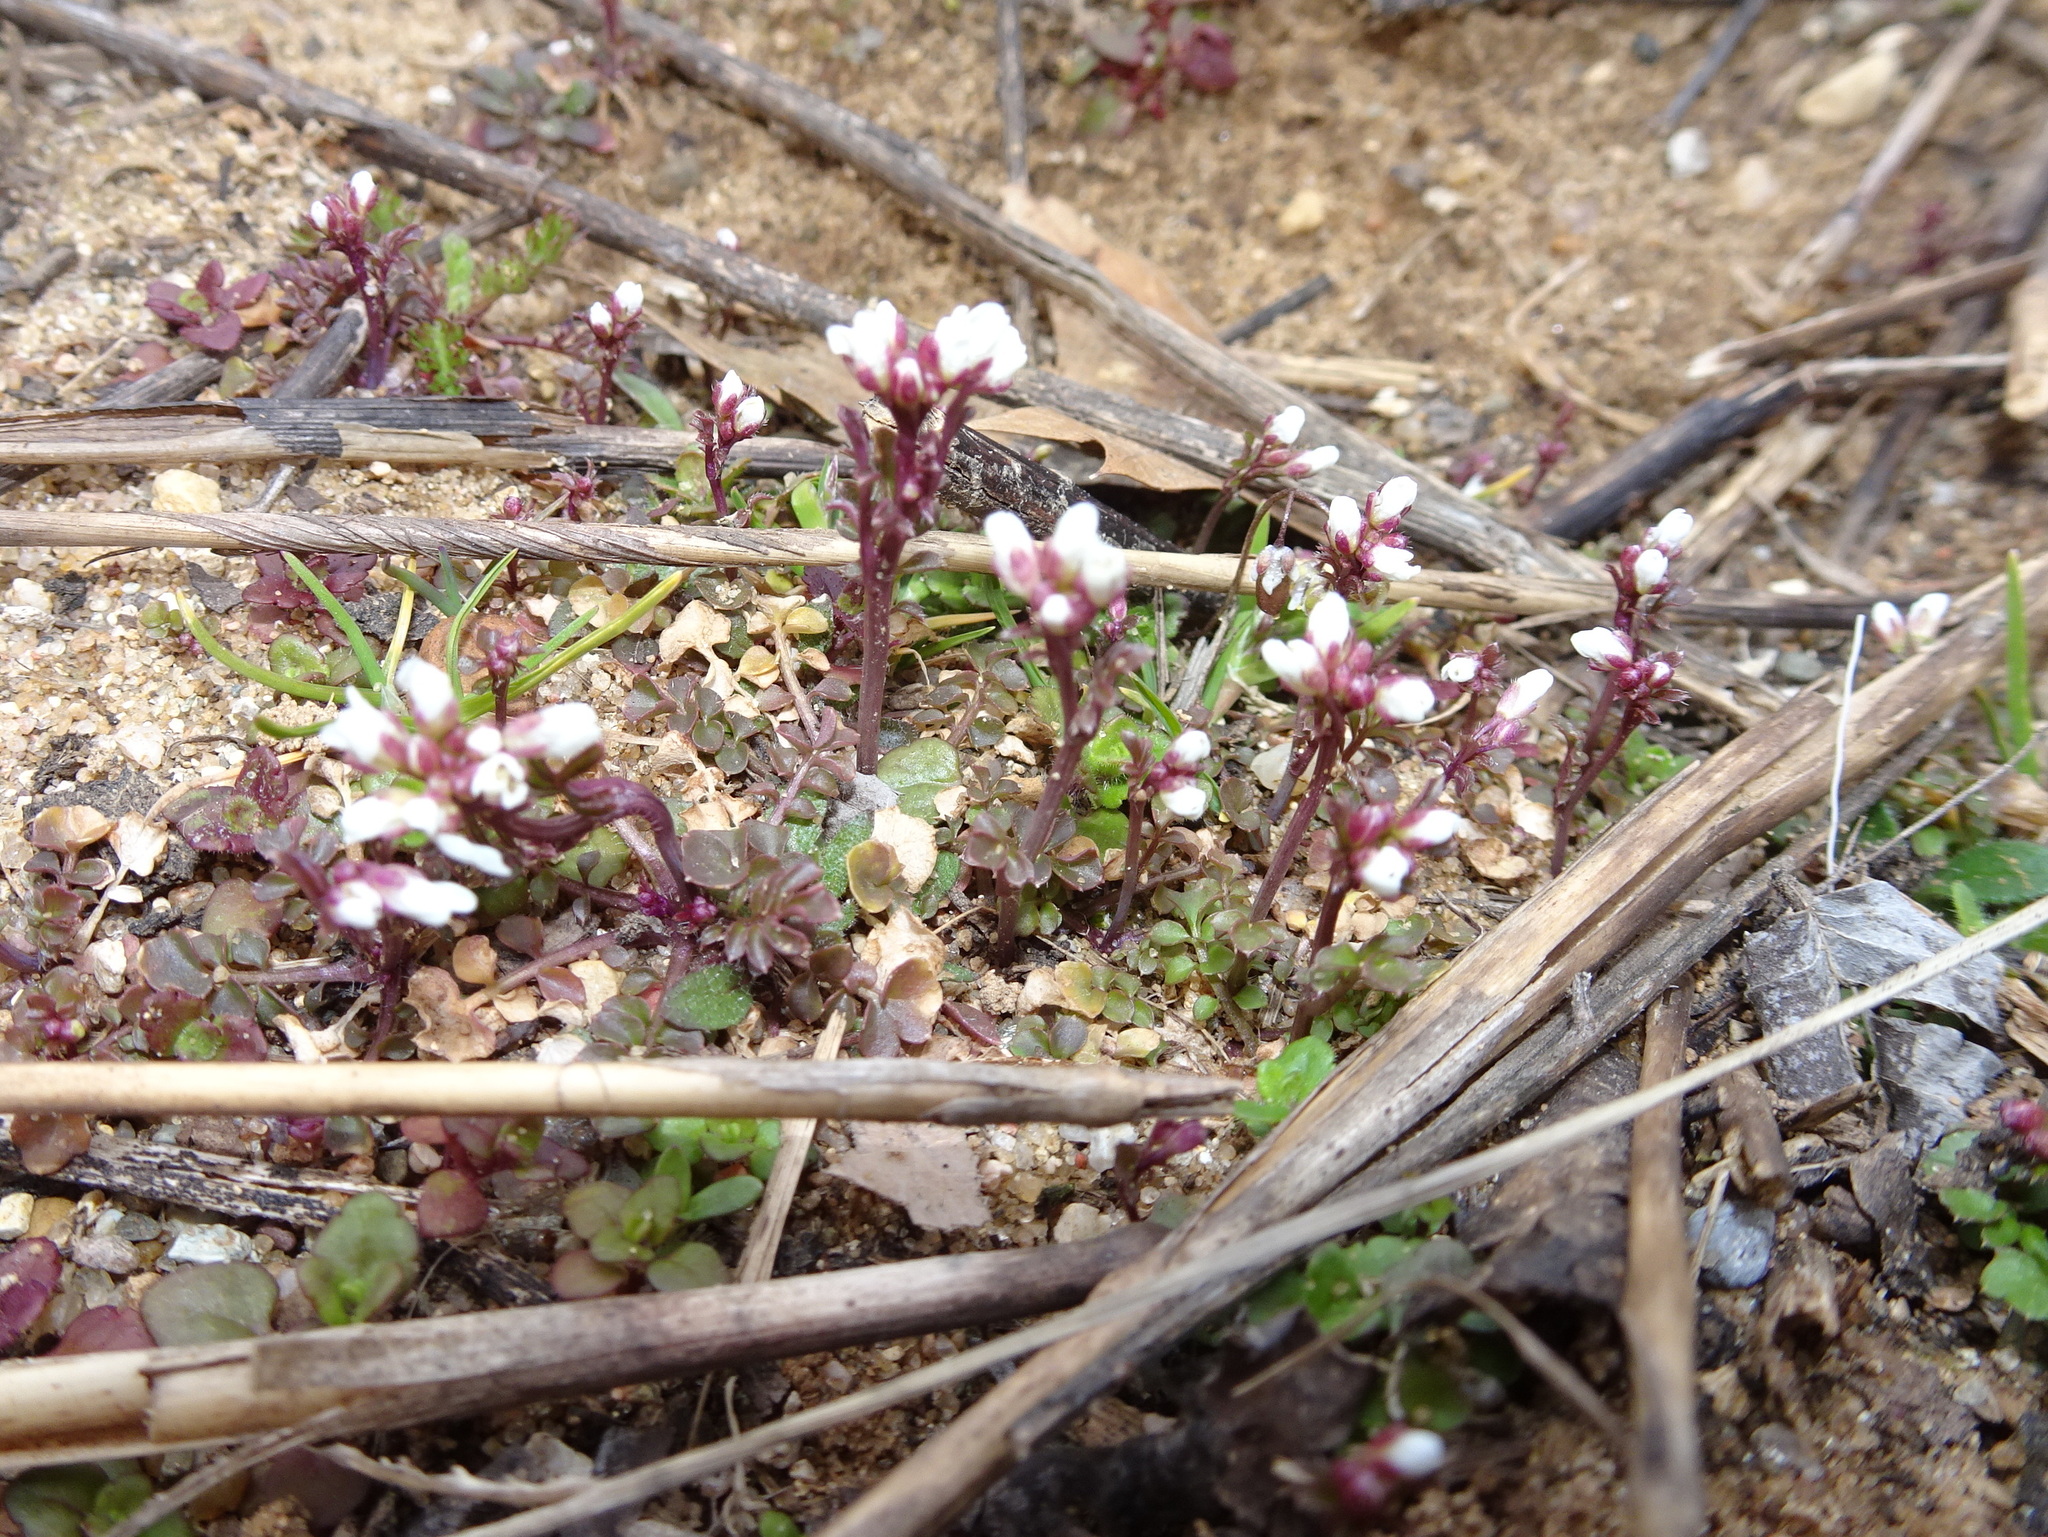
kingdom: Plantae
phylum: Tracheophyta
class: Magnoliopsida
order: Brassicales
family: Brassicaceae
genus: Cardamine
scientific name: Cardamine hirsuta
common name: Hairy bittercress
